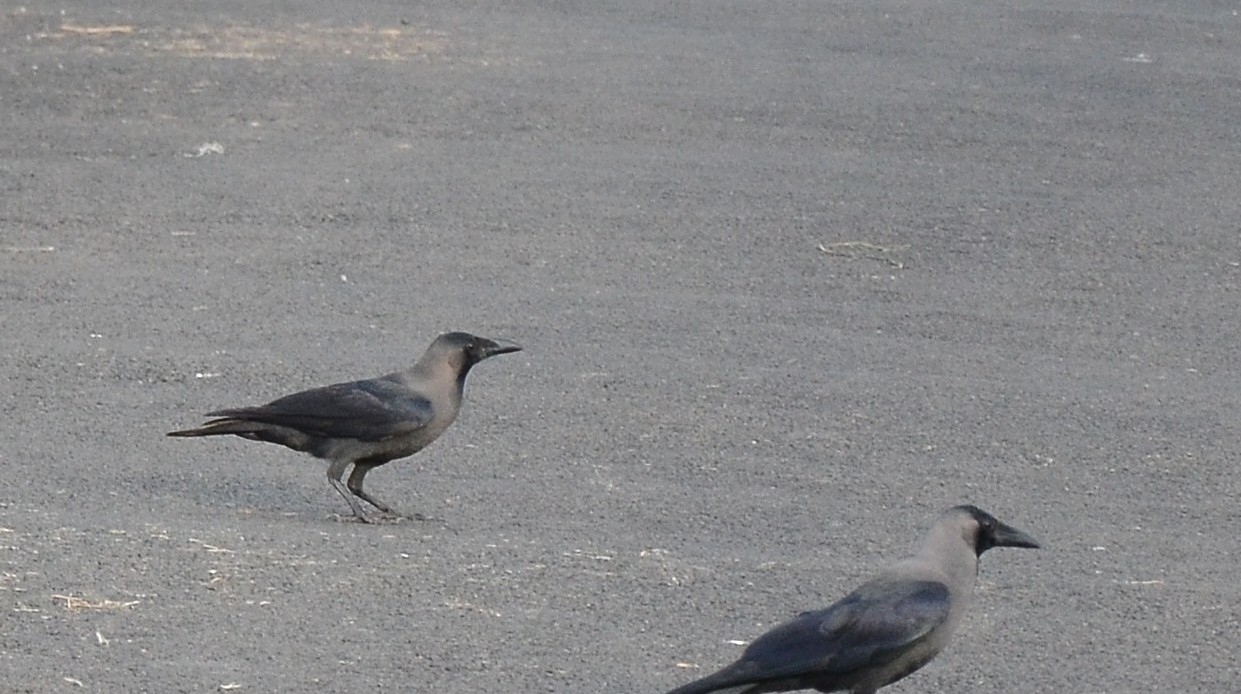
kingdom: Animalia
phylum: Chordata
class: Aves
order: Passeriformes
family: Corvidae
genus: Corvus
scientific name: Corvus splendens
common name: House crow
